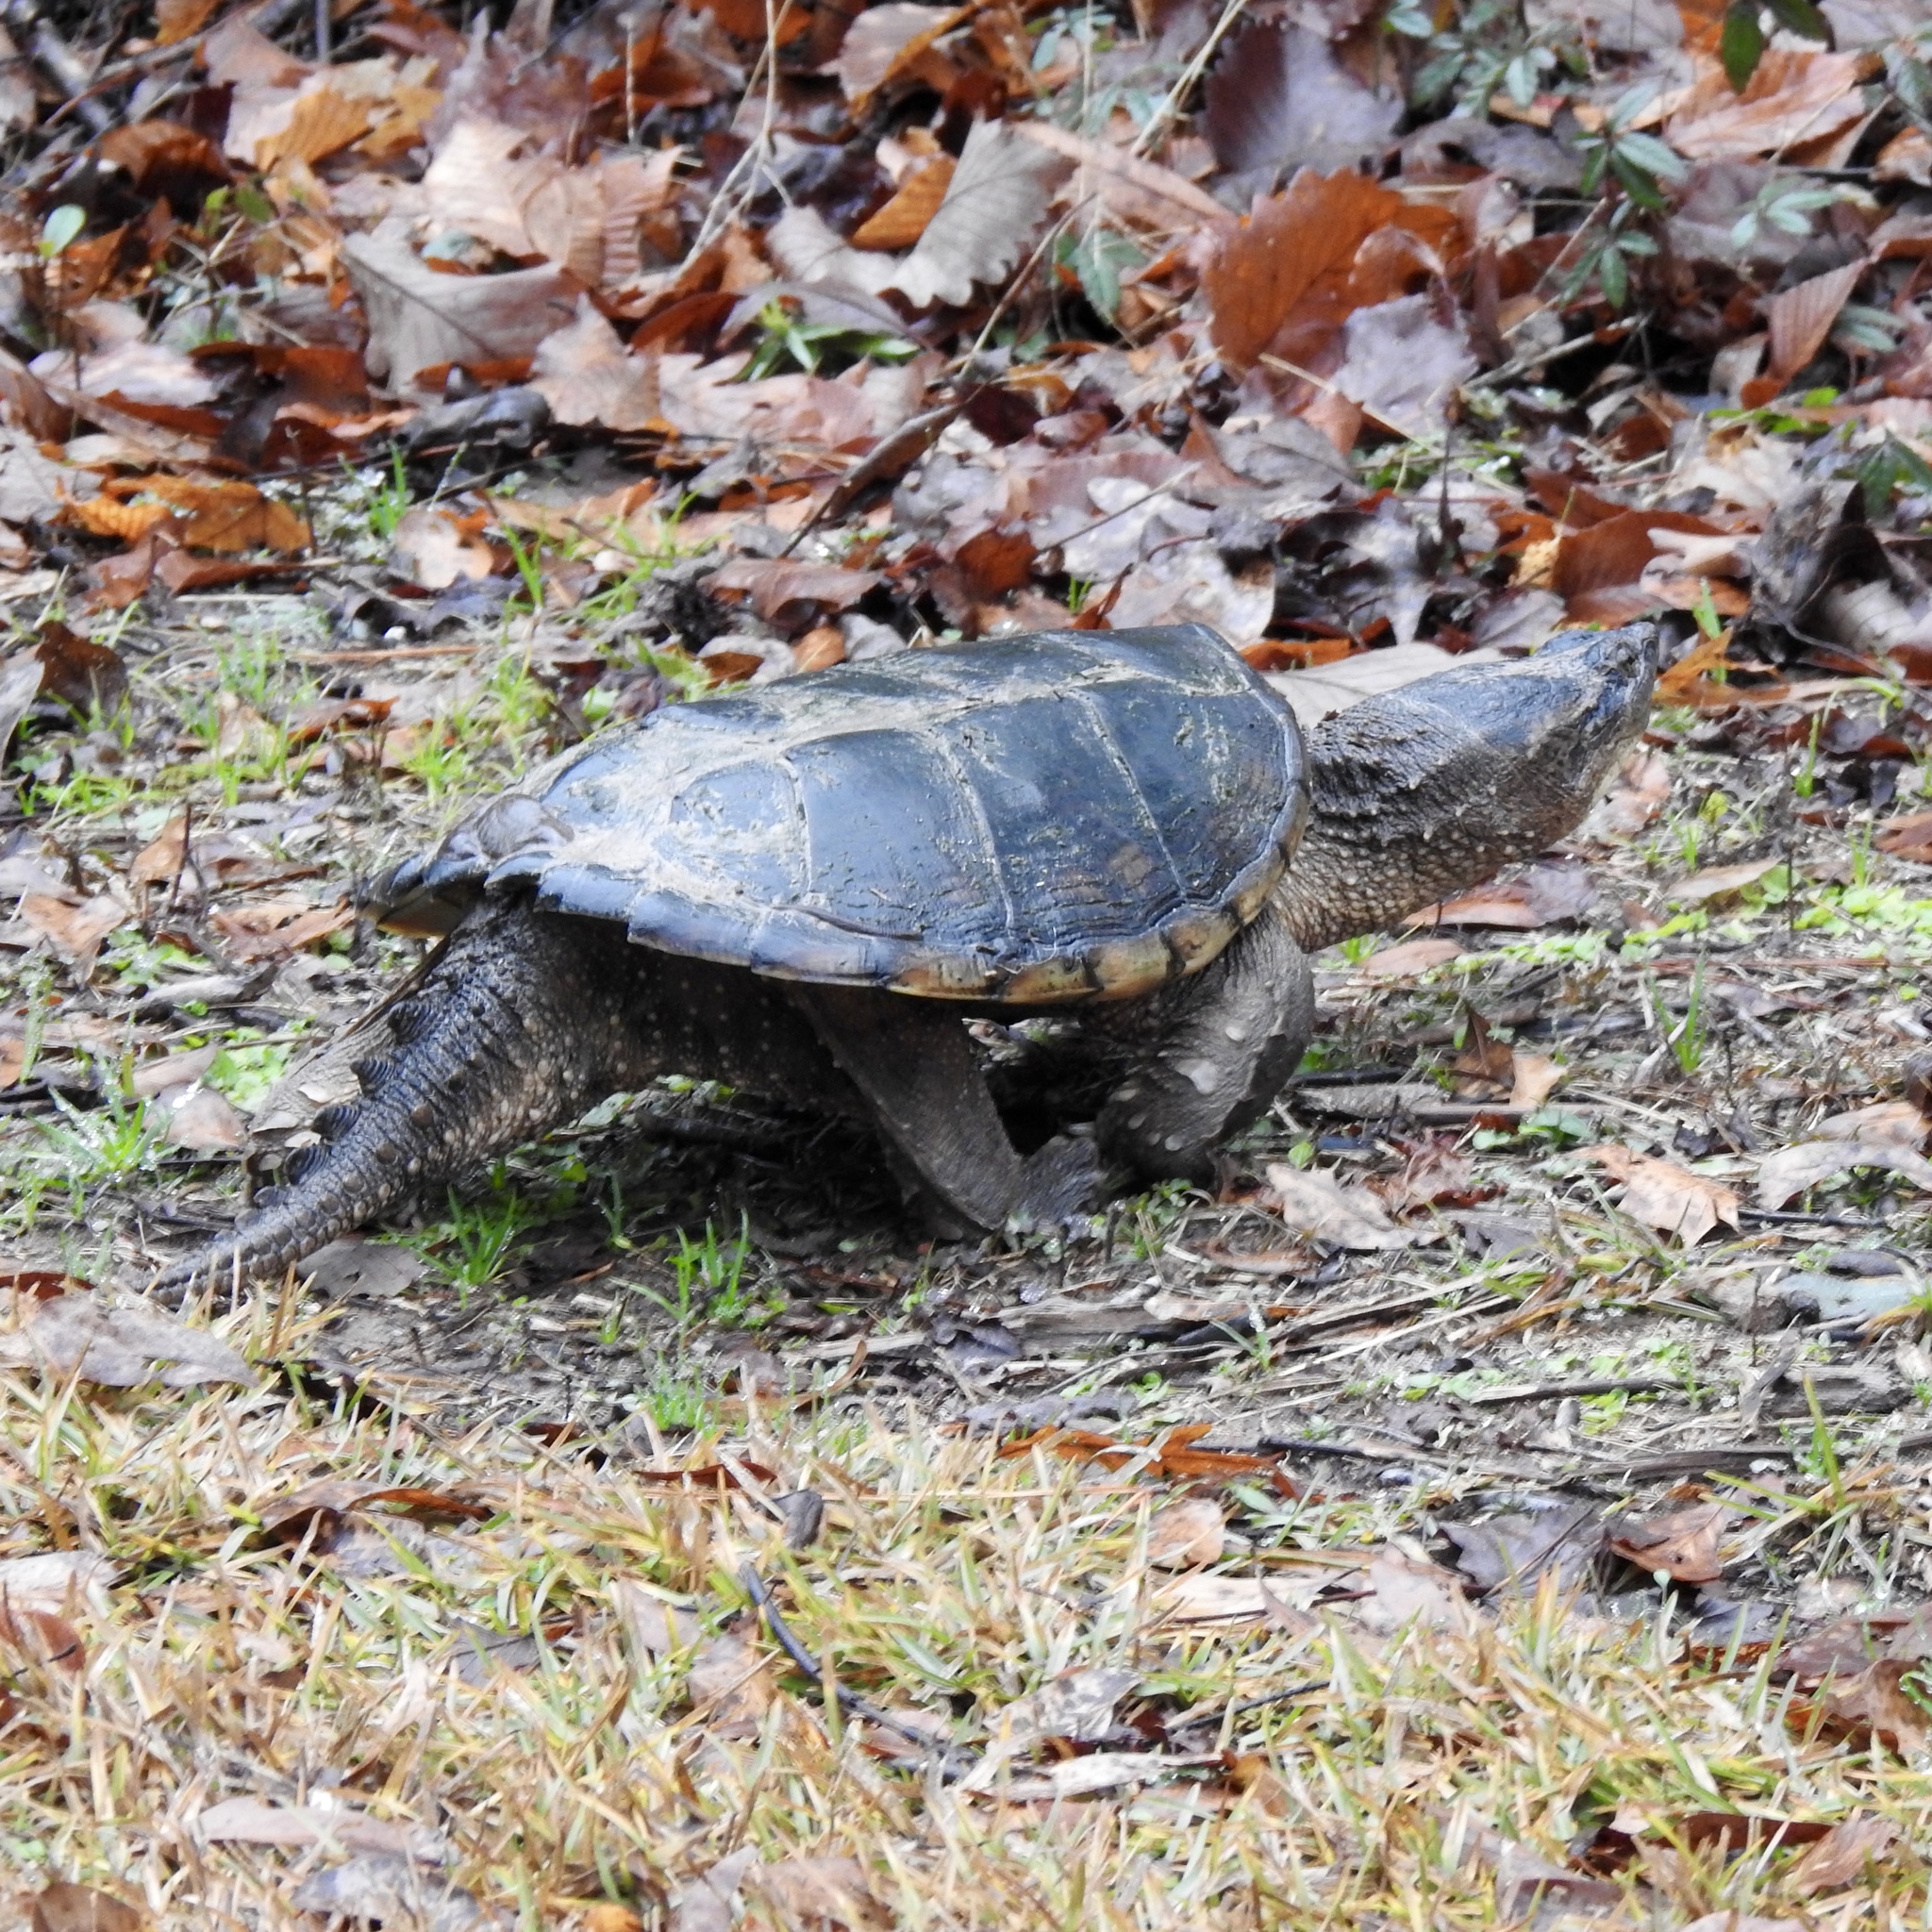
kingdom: Animalia
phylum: Chordata
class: Testudines
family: Chelydridae
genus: Chelydra
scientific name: Chelydra serpentina
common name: Common snapping turtle
